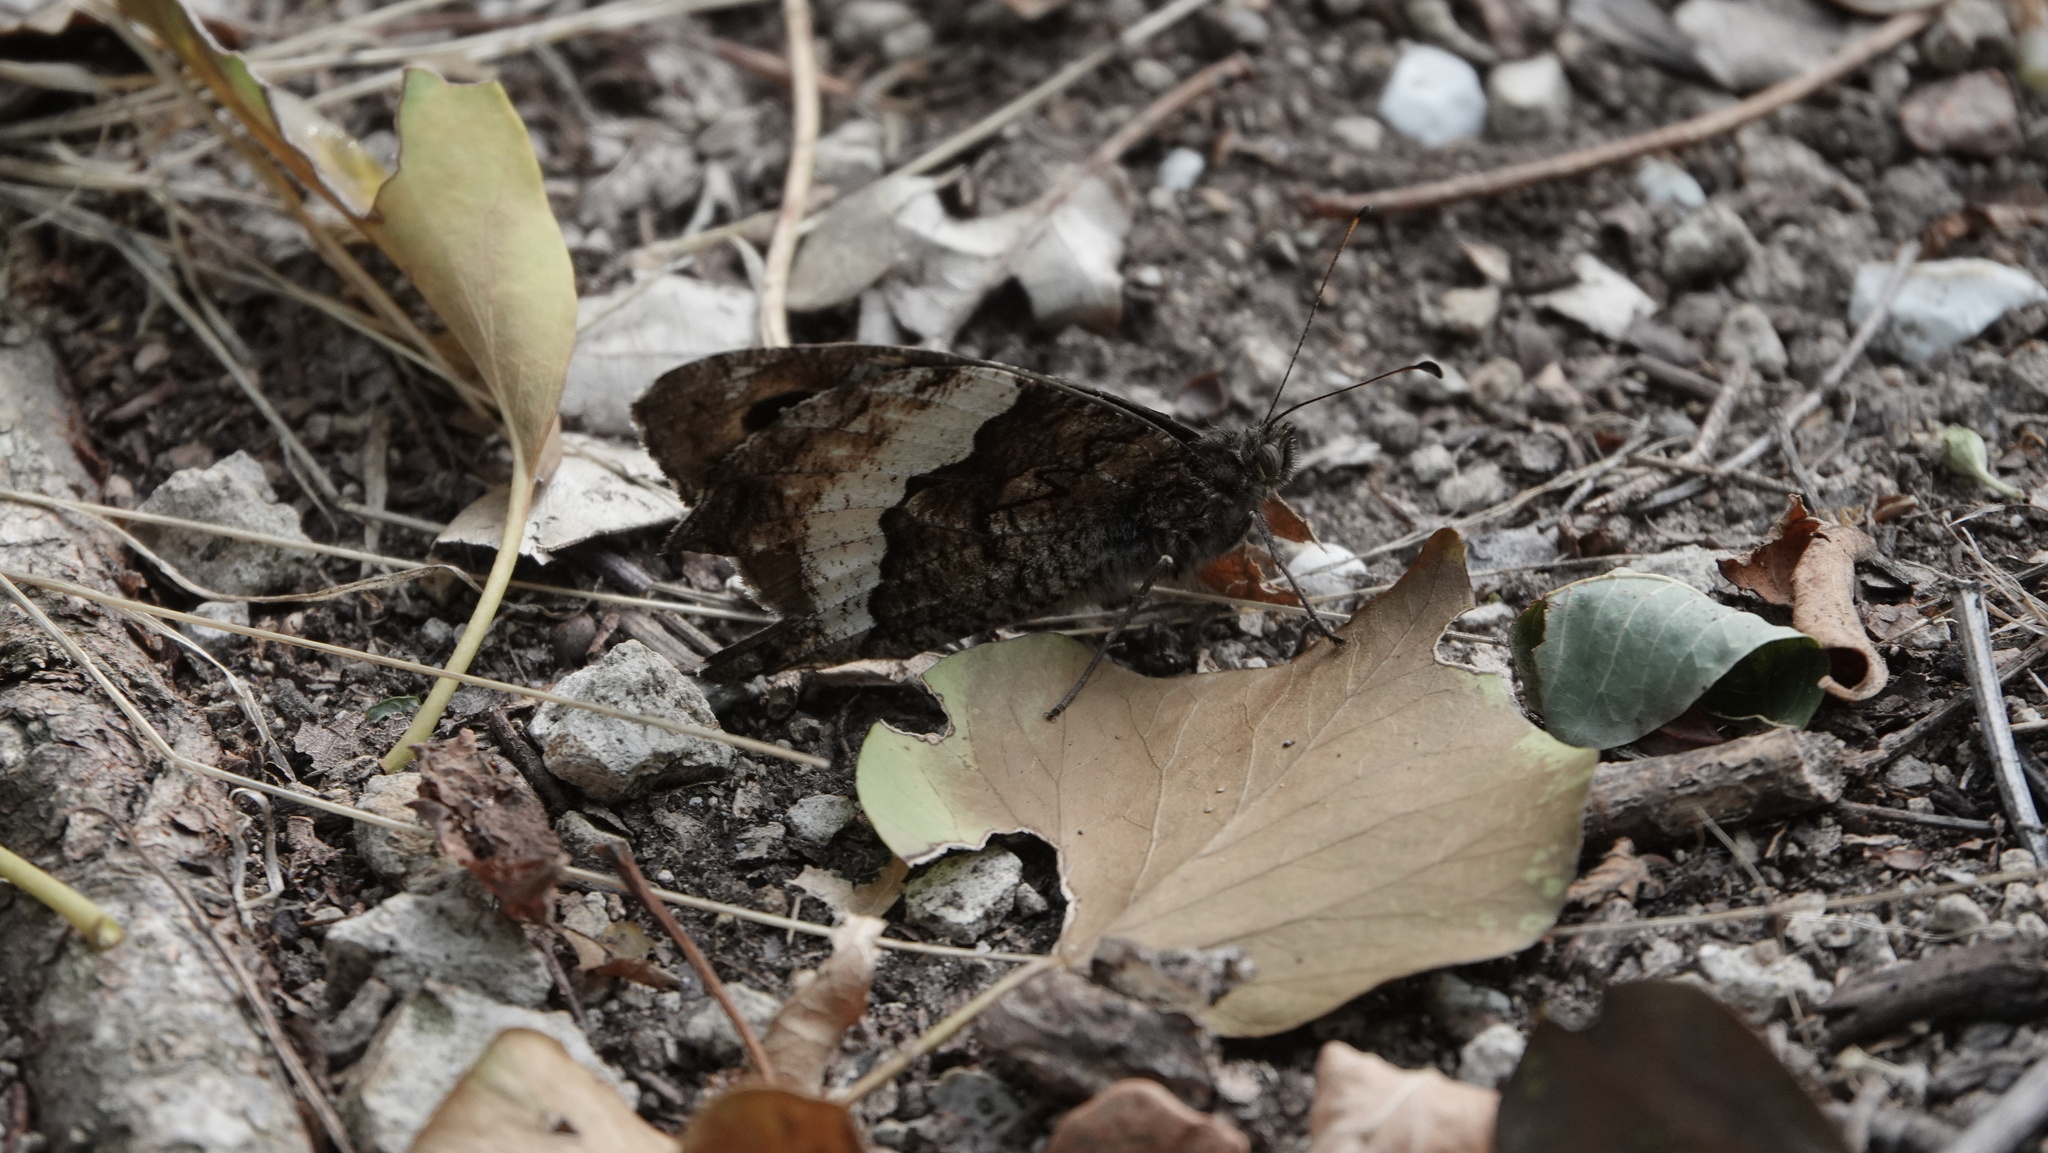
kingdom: Animalia
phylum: Arthropoda
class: Insecta
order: Lepidoptera
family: Nymphalidae
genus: Hipparchia
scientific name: Hipparchia fagi
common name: Woodland grayling
